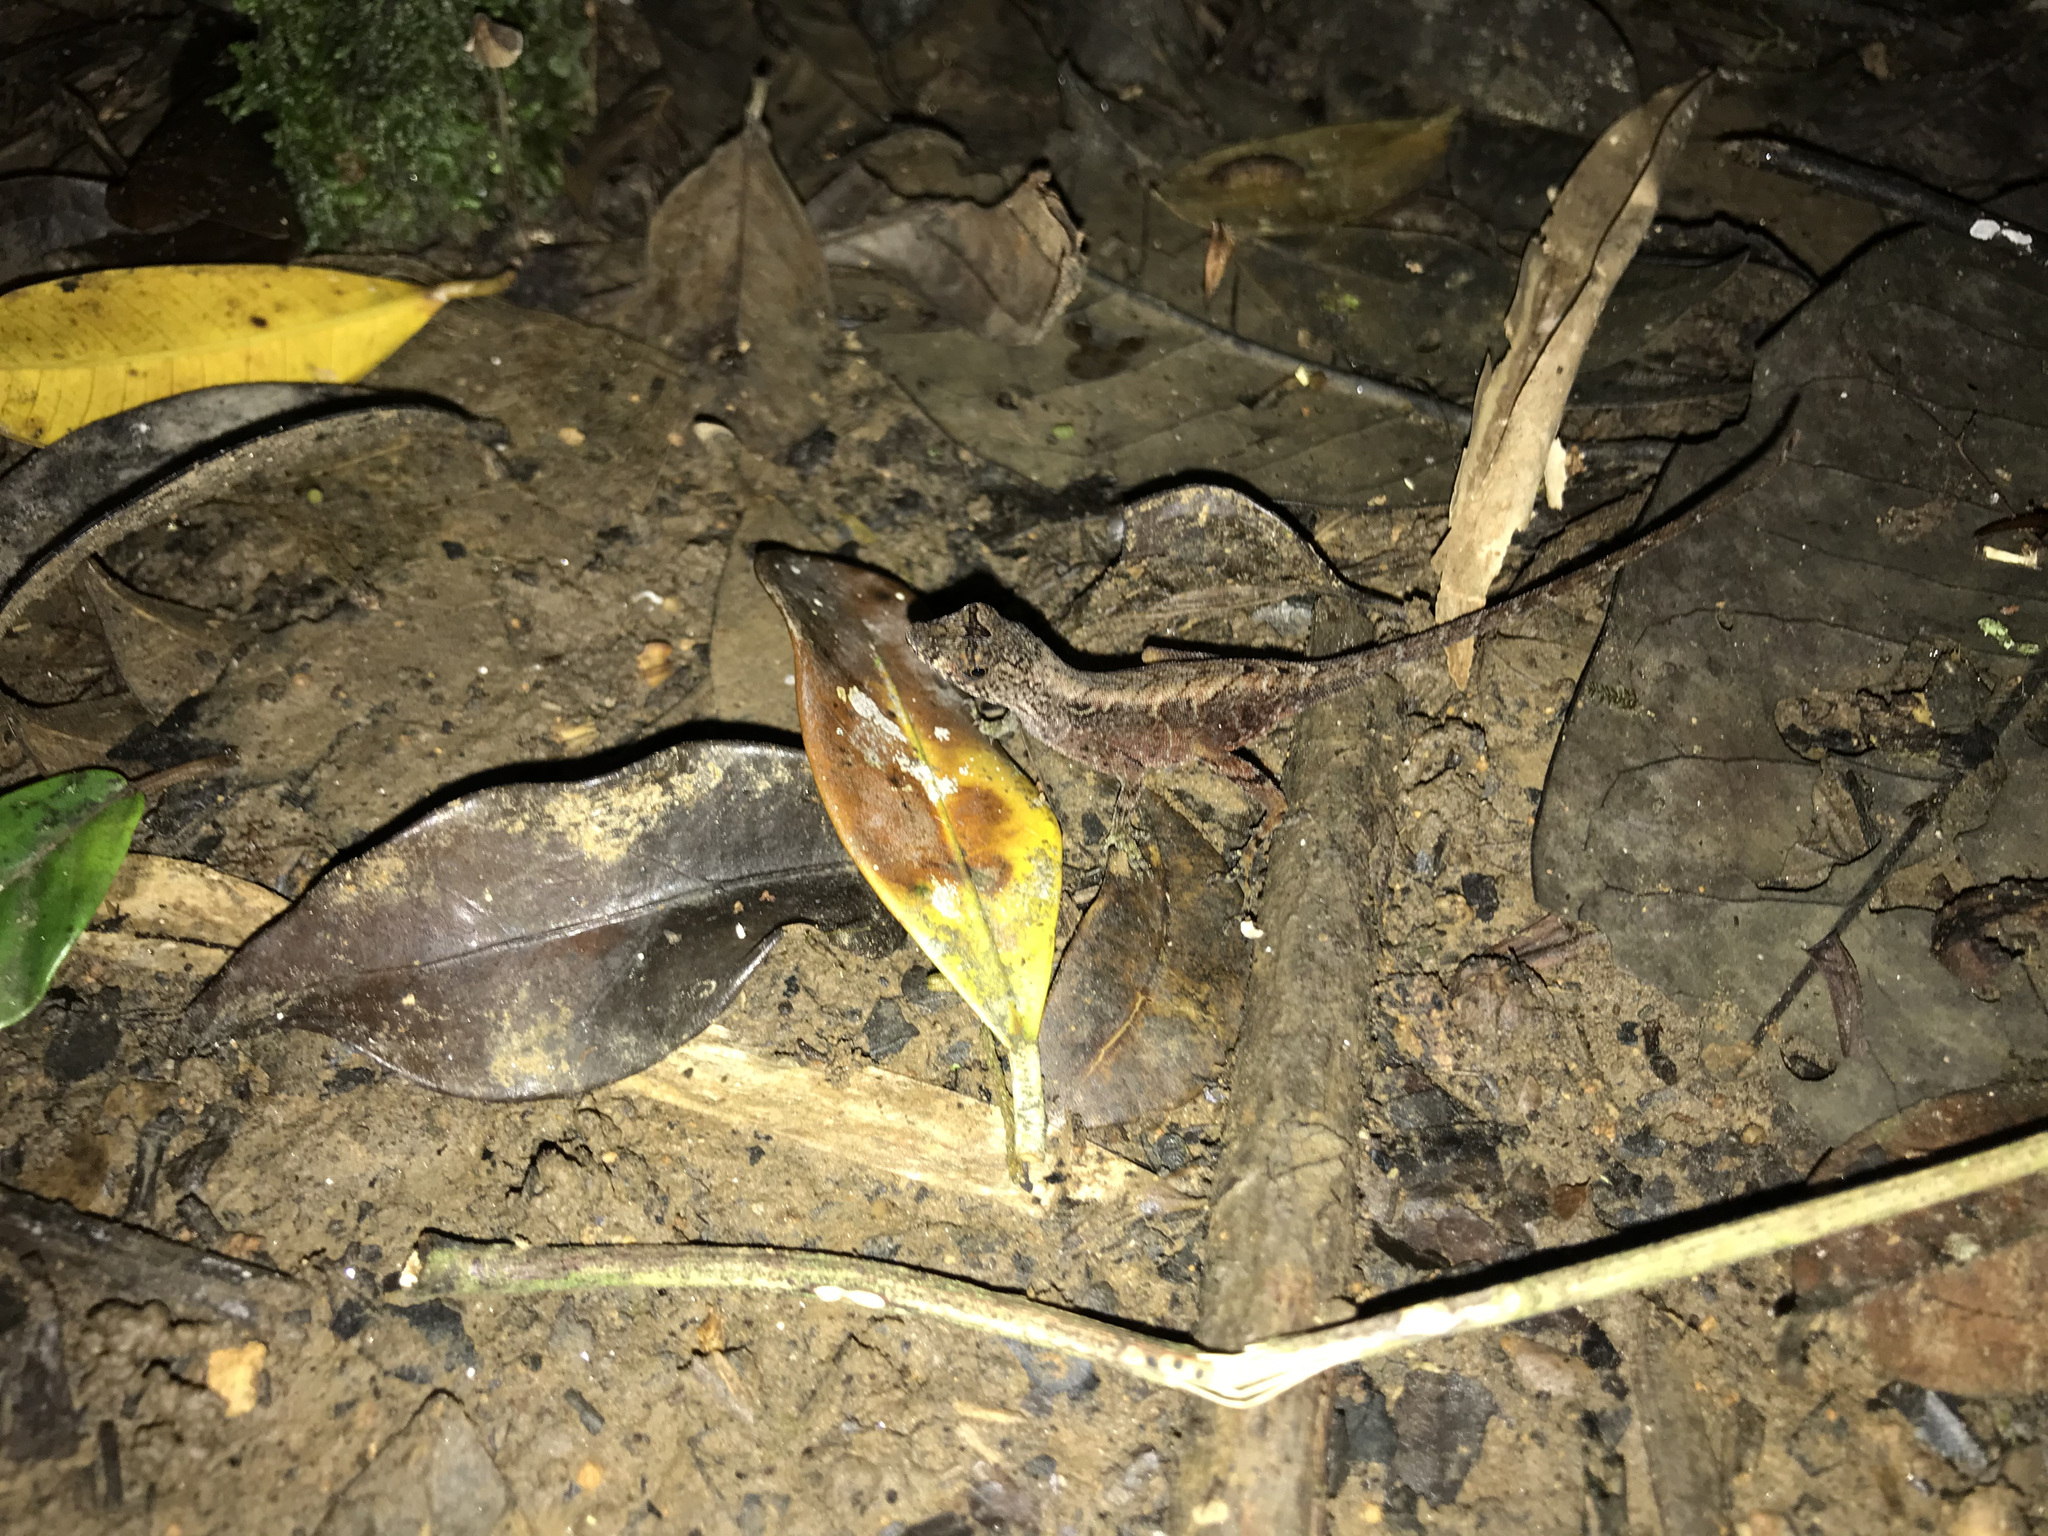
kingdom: Animalia
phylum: Chordata
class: Squamata
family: Dactyloidae
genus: Anolis
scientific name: Anolis humilis
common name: Humble anole
